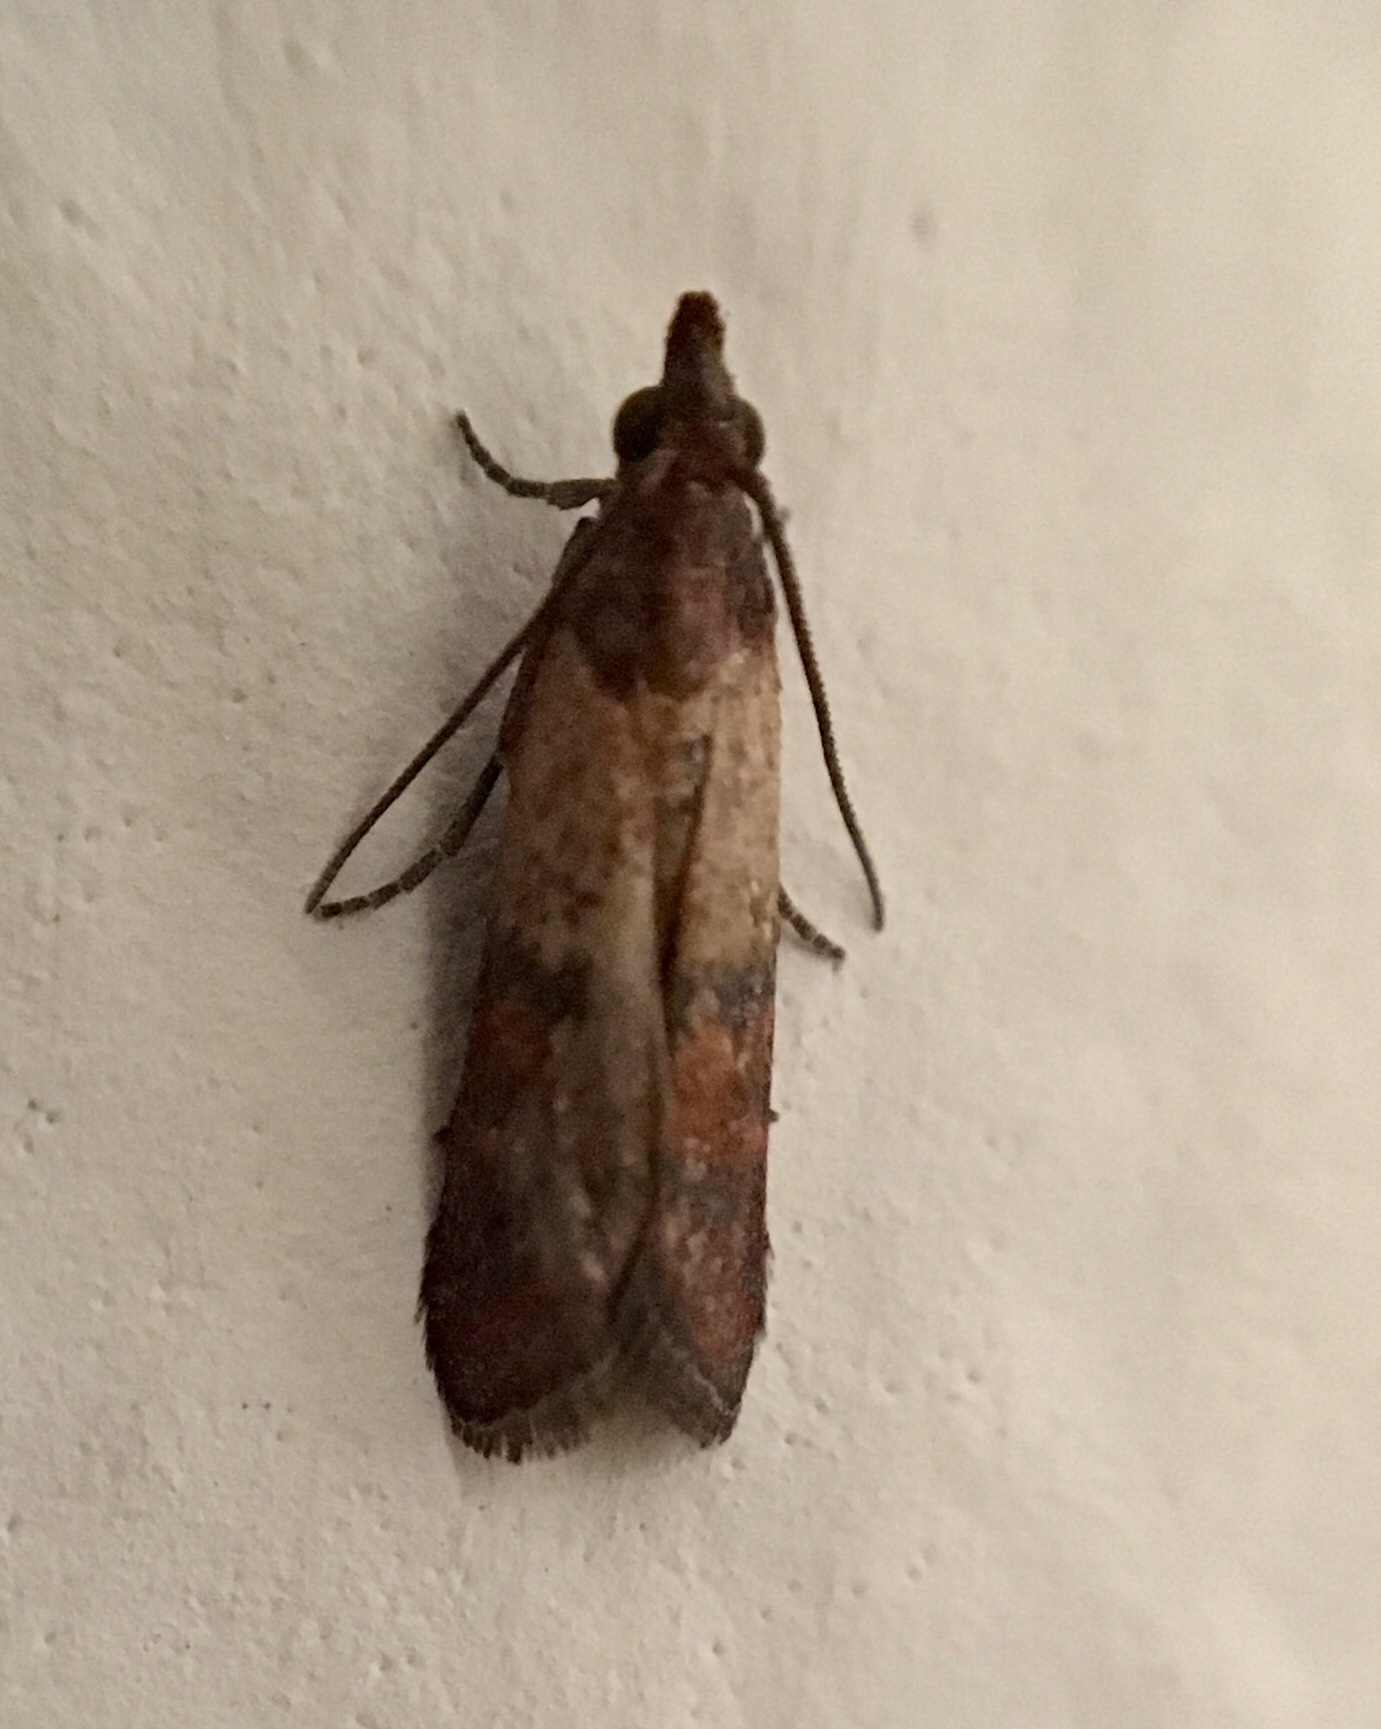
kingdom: Animalia
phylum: Arthropoda
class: Insecta
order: Lepidoptera
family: Pyralidae
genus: Plodia
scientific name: Plodia interpunctella
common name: Indian meal moth
